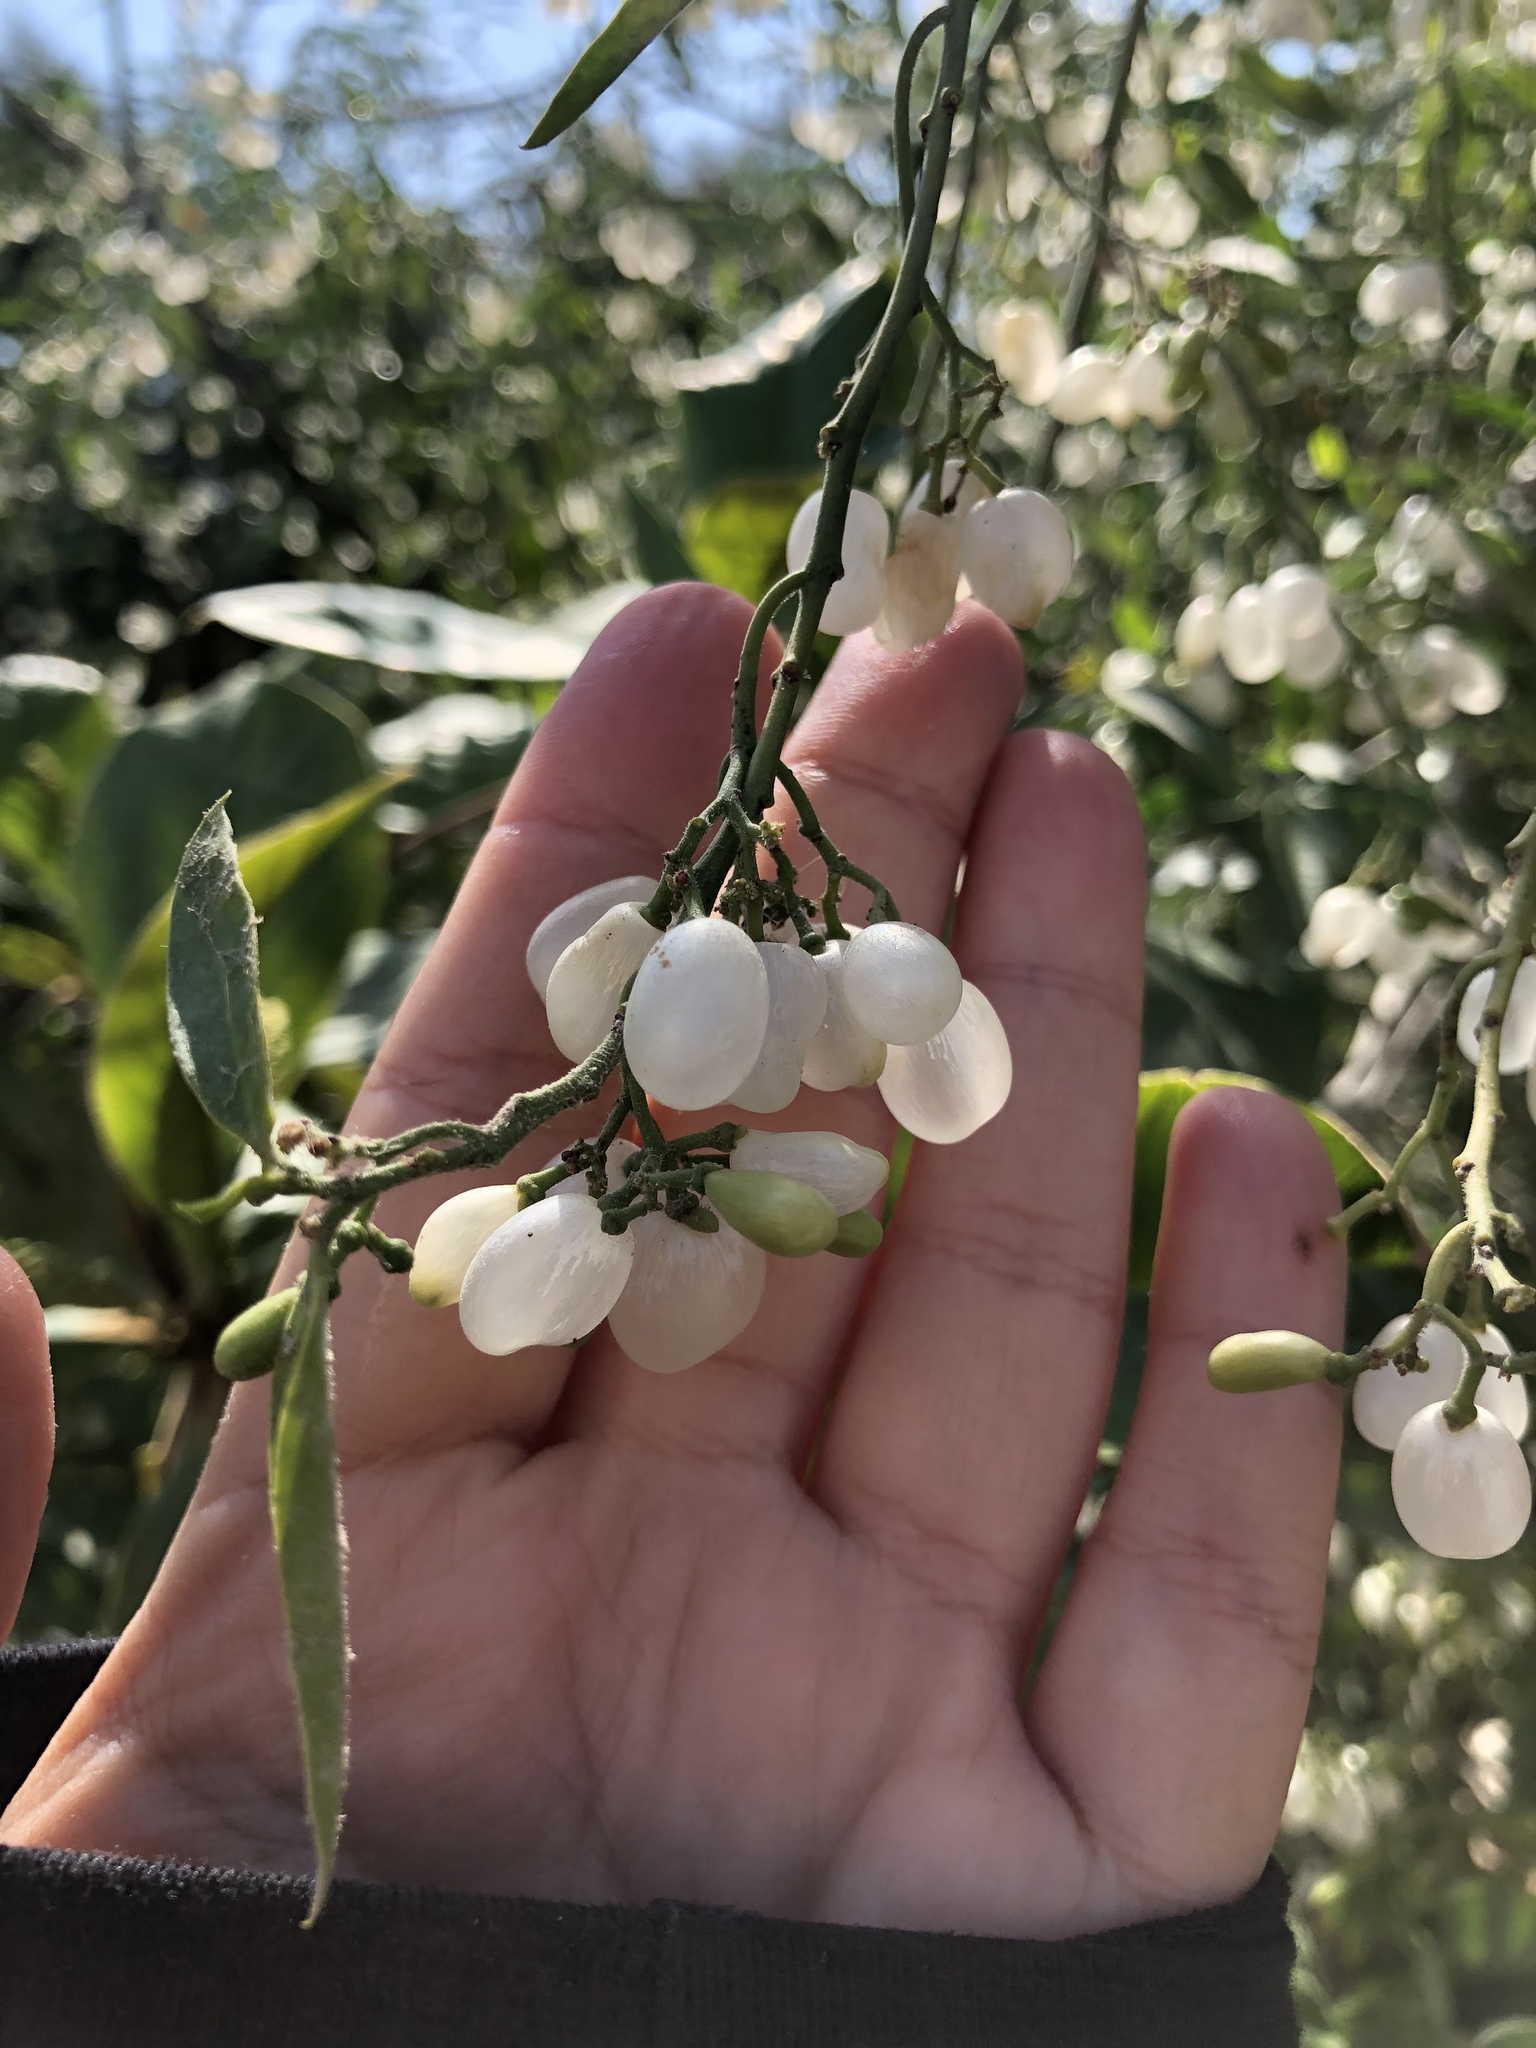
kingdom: Plantae
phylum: Tracheophyta
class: Magnoliopsida
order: Gentianales
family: Apocynaceae
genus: Vallesia
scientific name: Vallesia glabra
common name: Pearlberry
